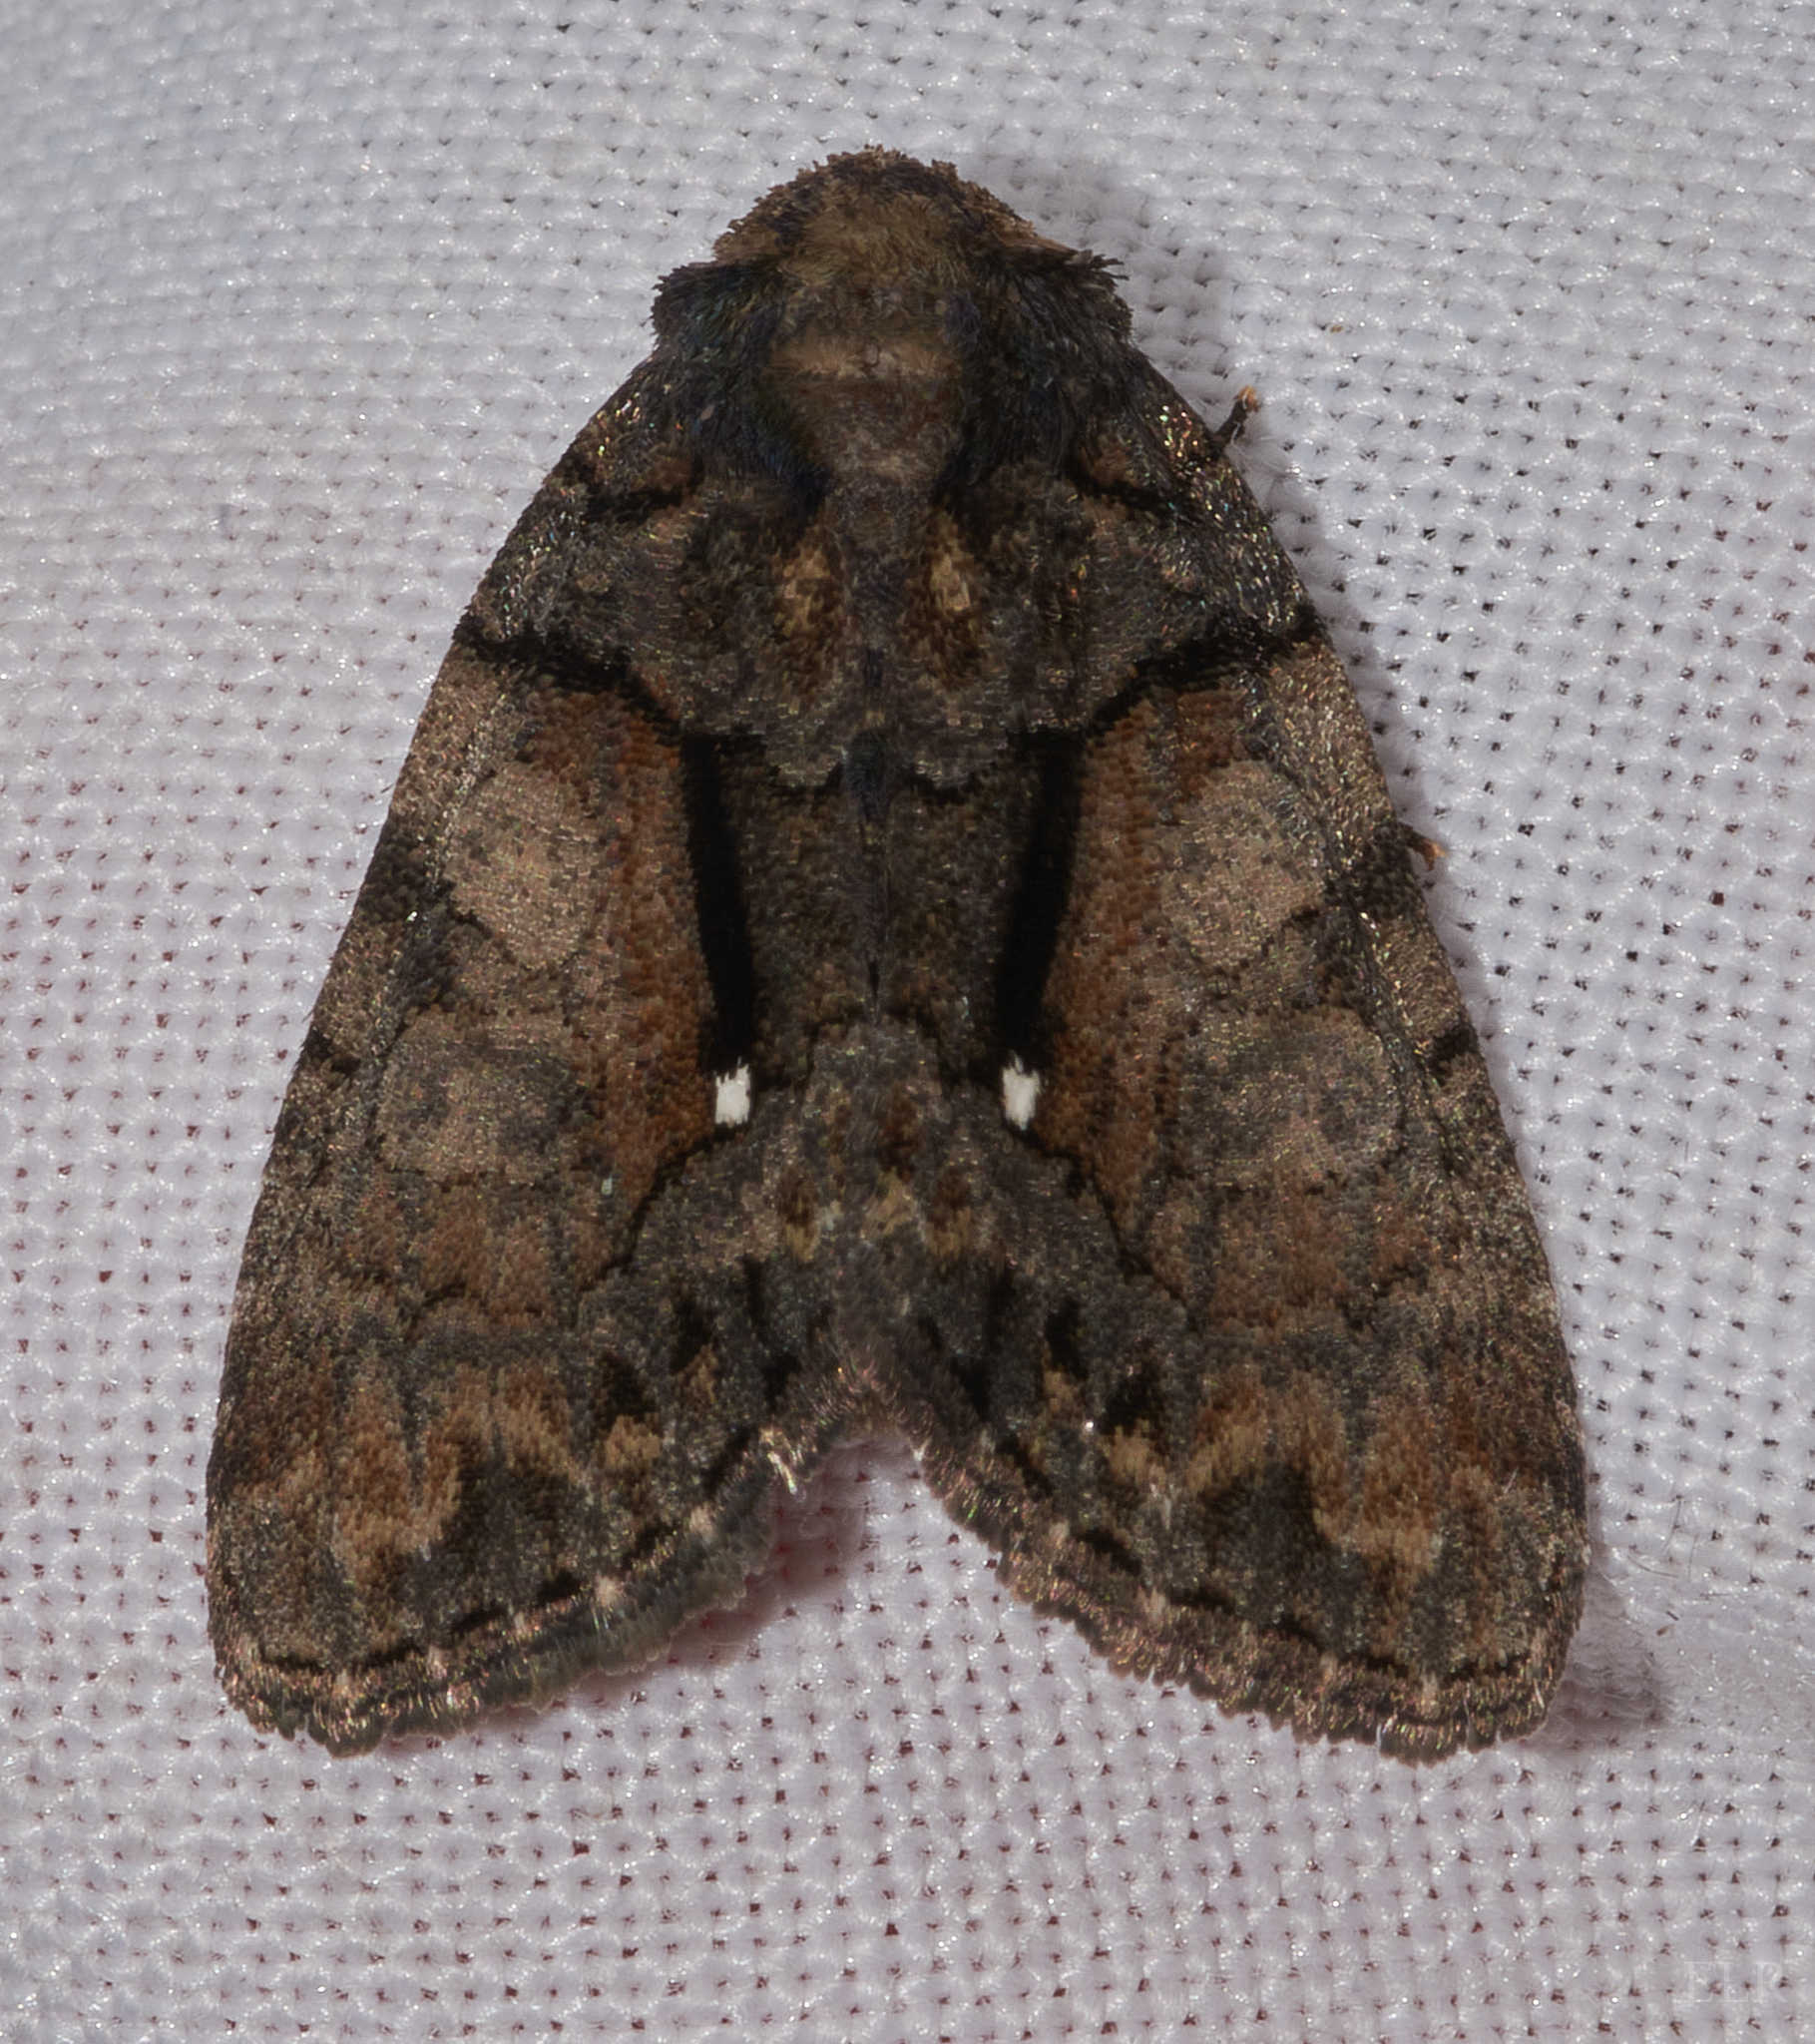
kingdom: Animalia
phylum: Arthropoda
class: Insecta
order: Lepidoptera
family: Noctuidae
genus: Chytonix
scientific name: Chytonix palliatricula
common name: Cloaked marvel
